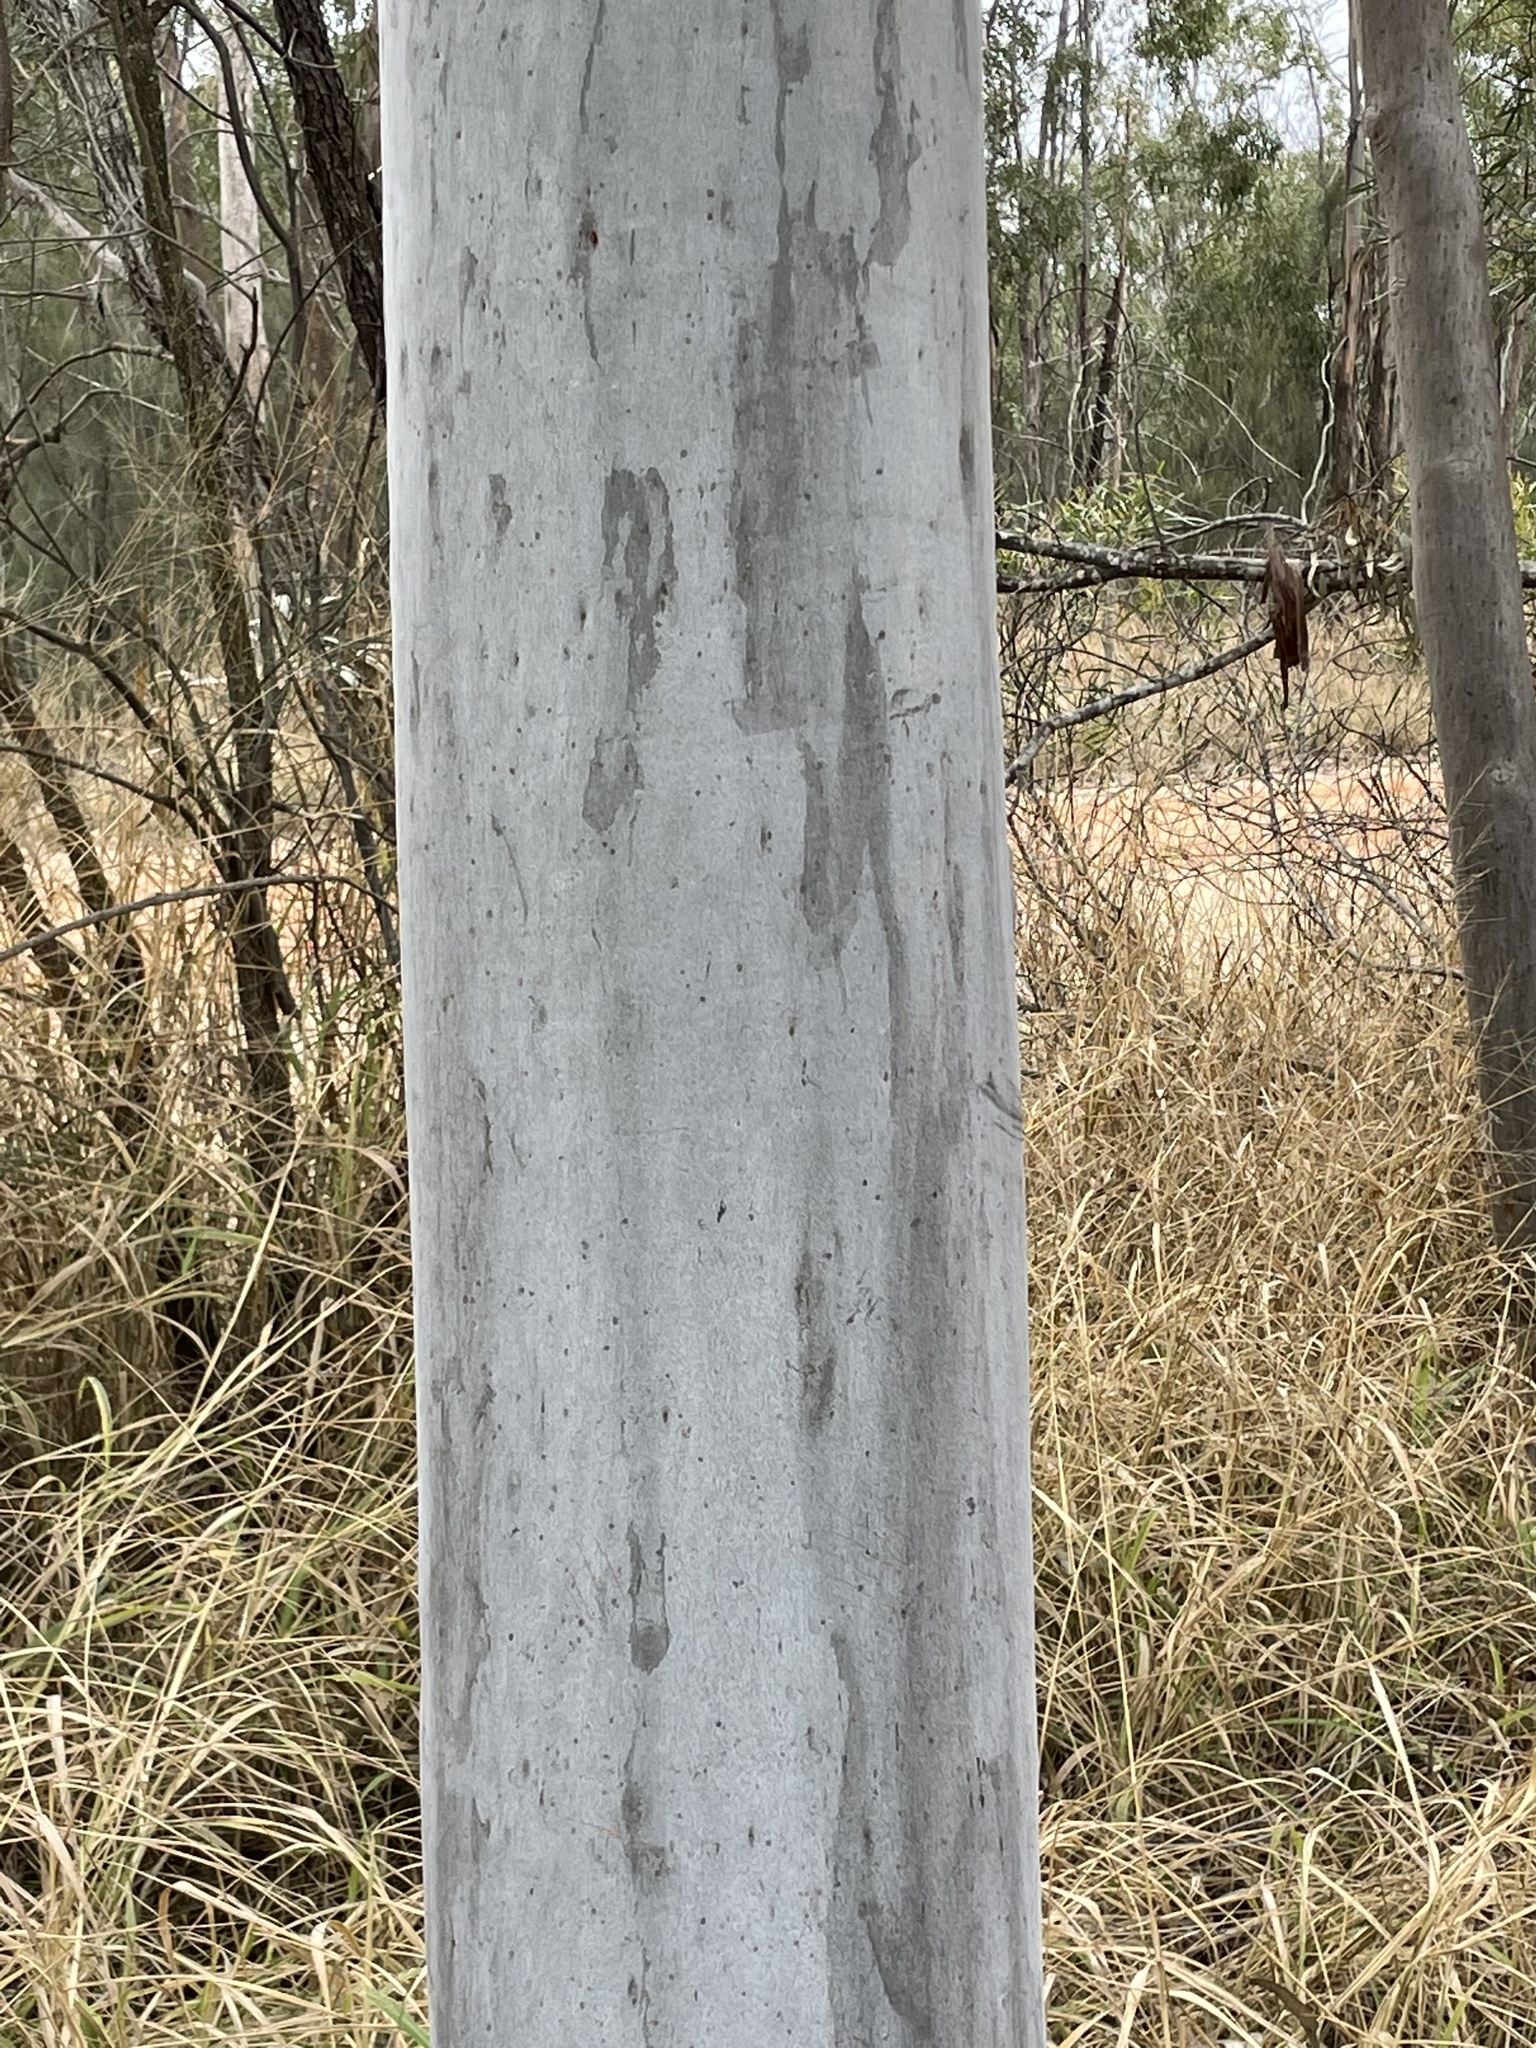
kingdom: Plantae
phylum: Tracheophyta
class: Magnoliopsida
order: Myrtales
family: Myrtaceae
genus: Angophora
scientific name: Angophora leiocarpa
